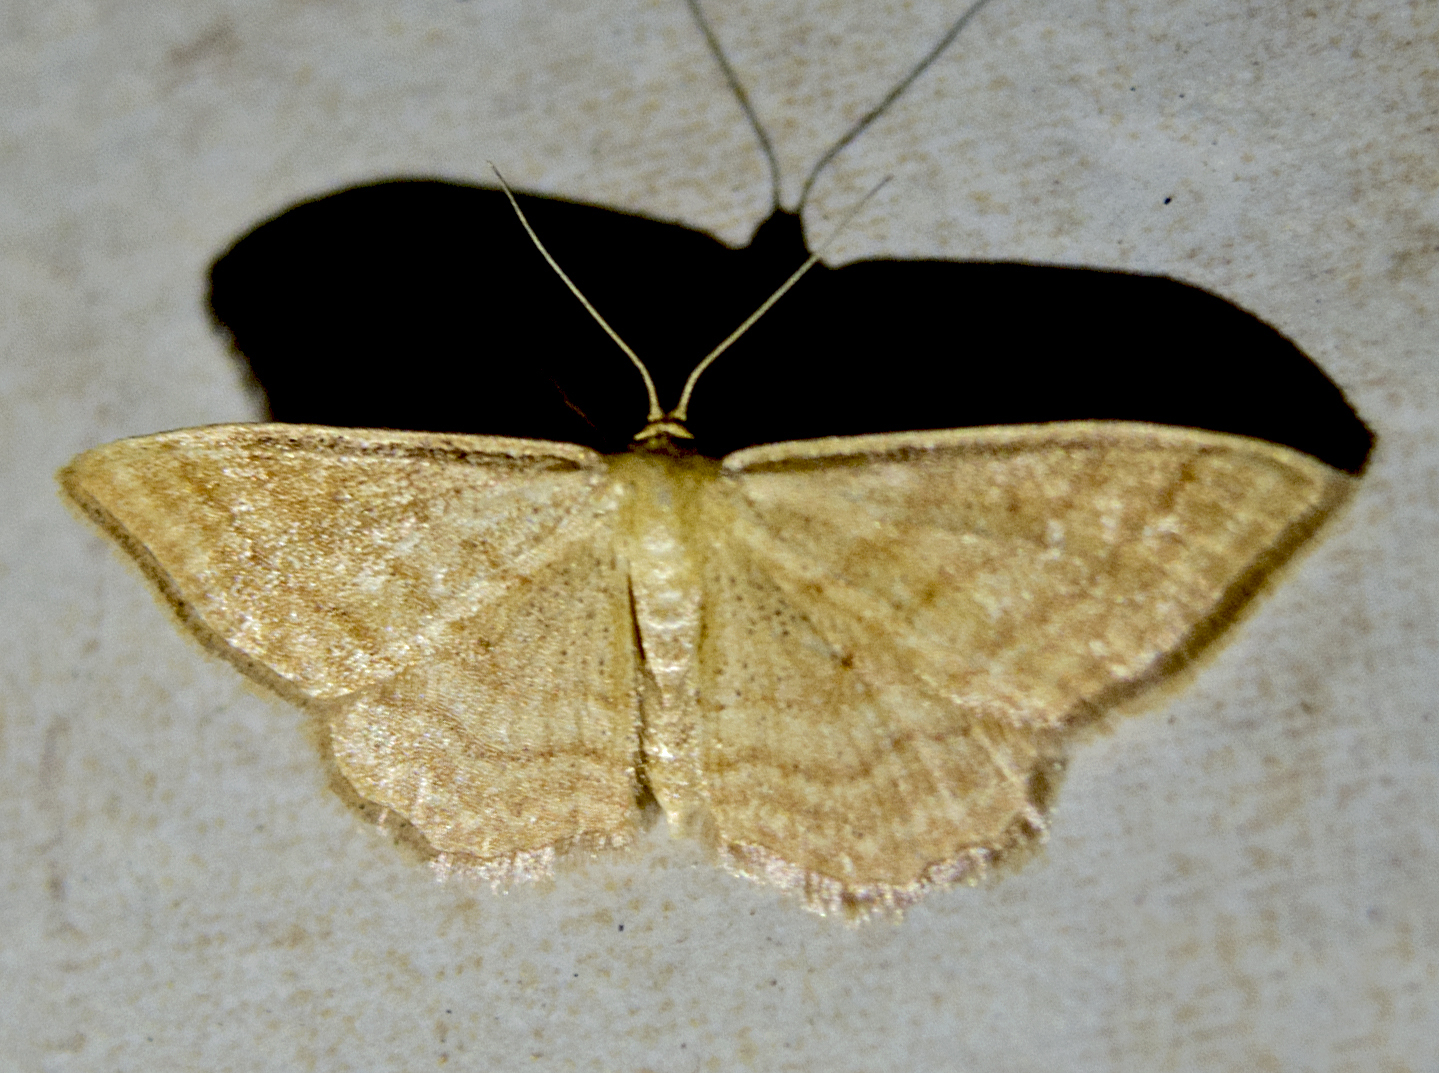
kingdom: Animalia
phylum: Arthropoda
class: Insecta
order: Lepidoptera
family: Geometridae
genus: Idaea
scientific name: Idaea ochrata
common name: Bright wave
